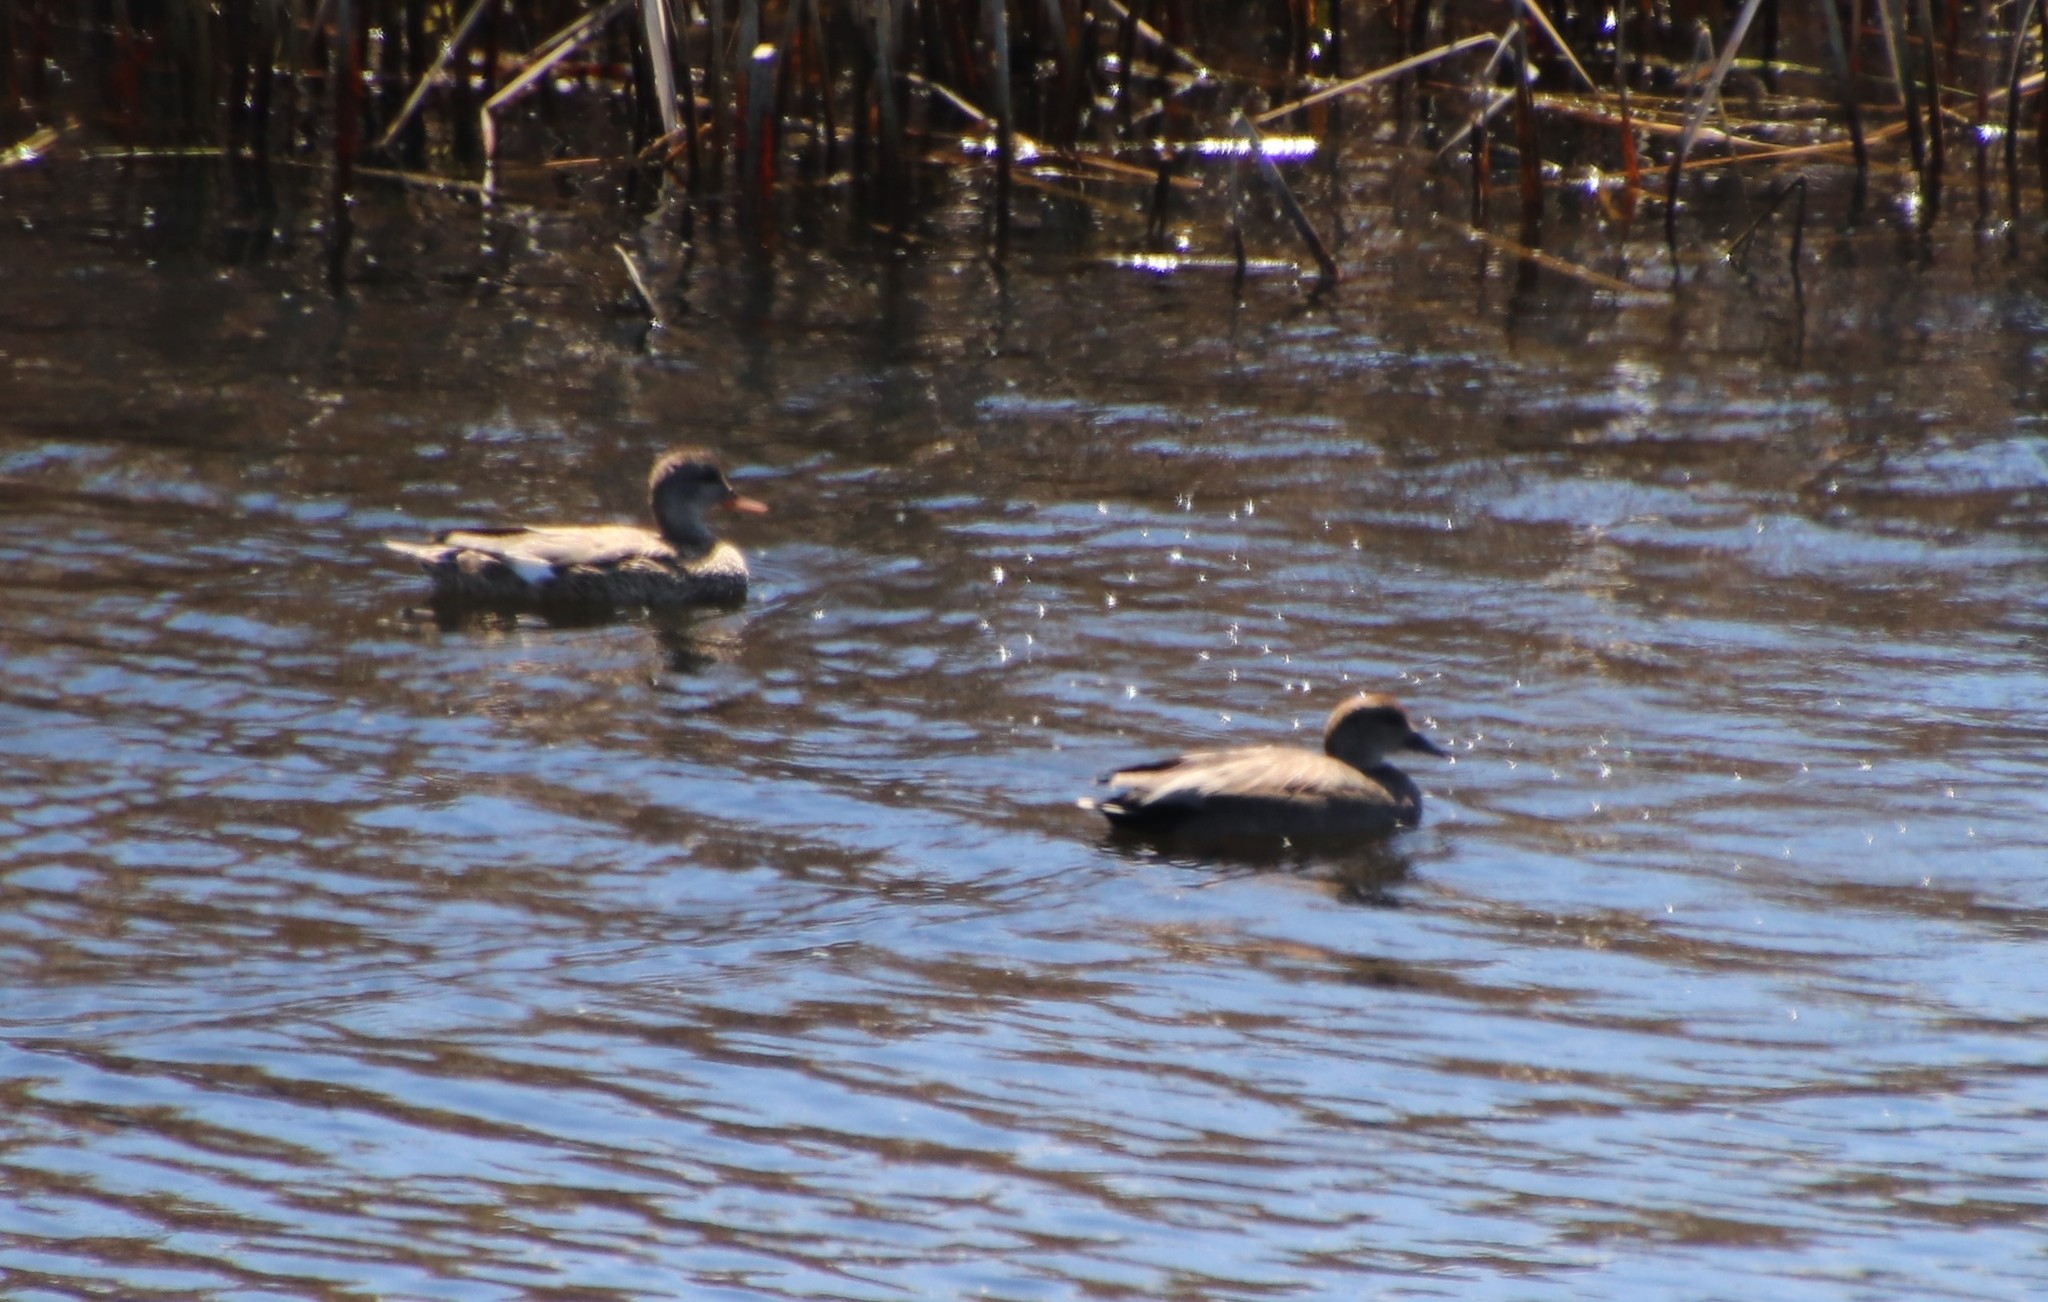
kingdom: Animalia
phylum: Chordata
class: Aves
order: Anseriformes
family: Anatidae
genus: Mareca
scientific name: Mareca strepera
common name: Gadwall
